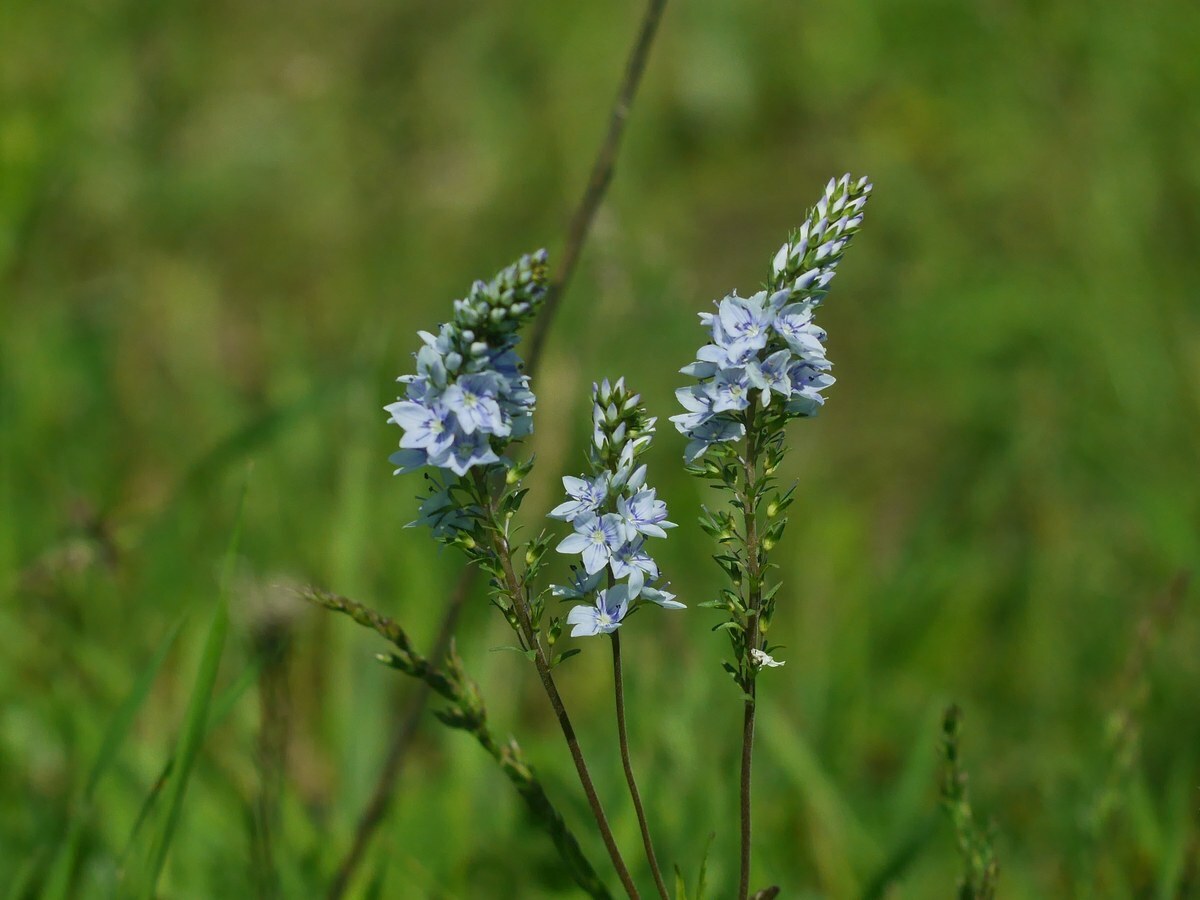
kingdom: Plantae
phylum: Tracheophyta
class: Magnoliopsida
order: Lamiales
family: Plantaginaceae
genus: Veronica
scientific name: Veronica prostrata
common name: Prostrate speedwell
